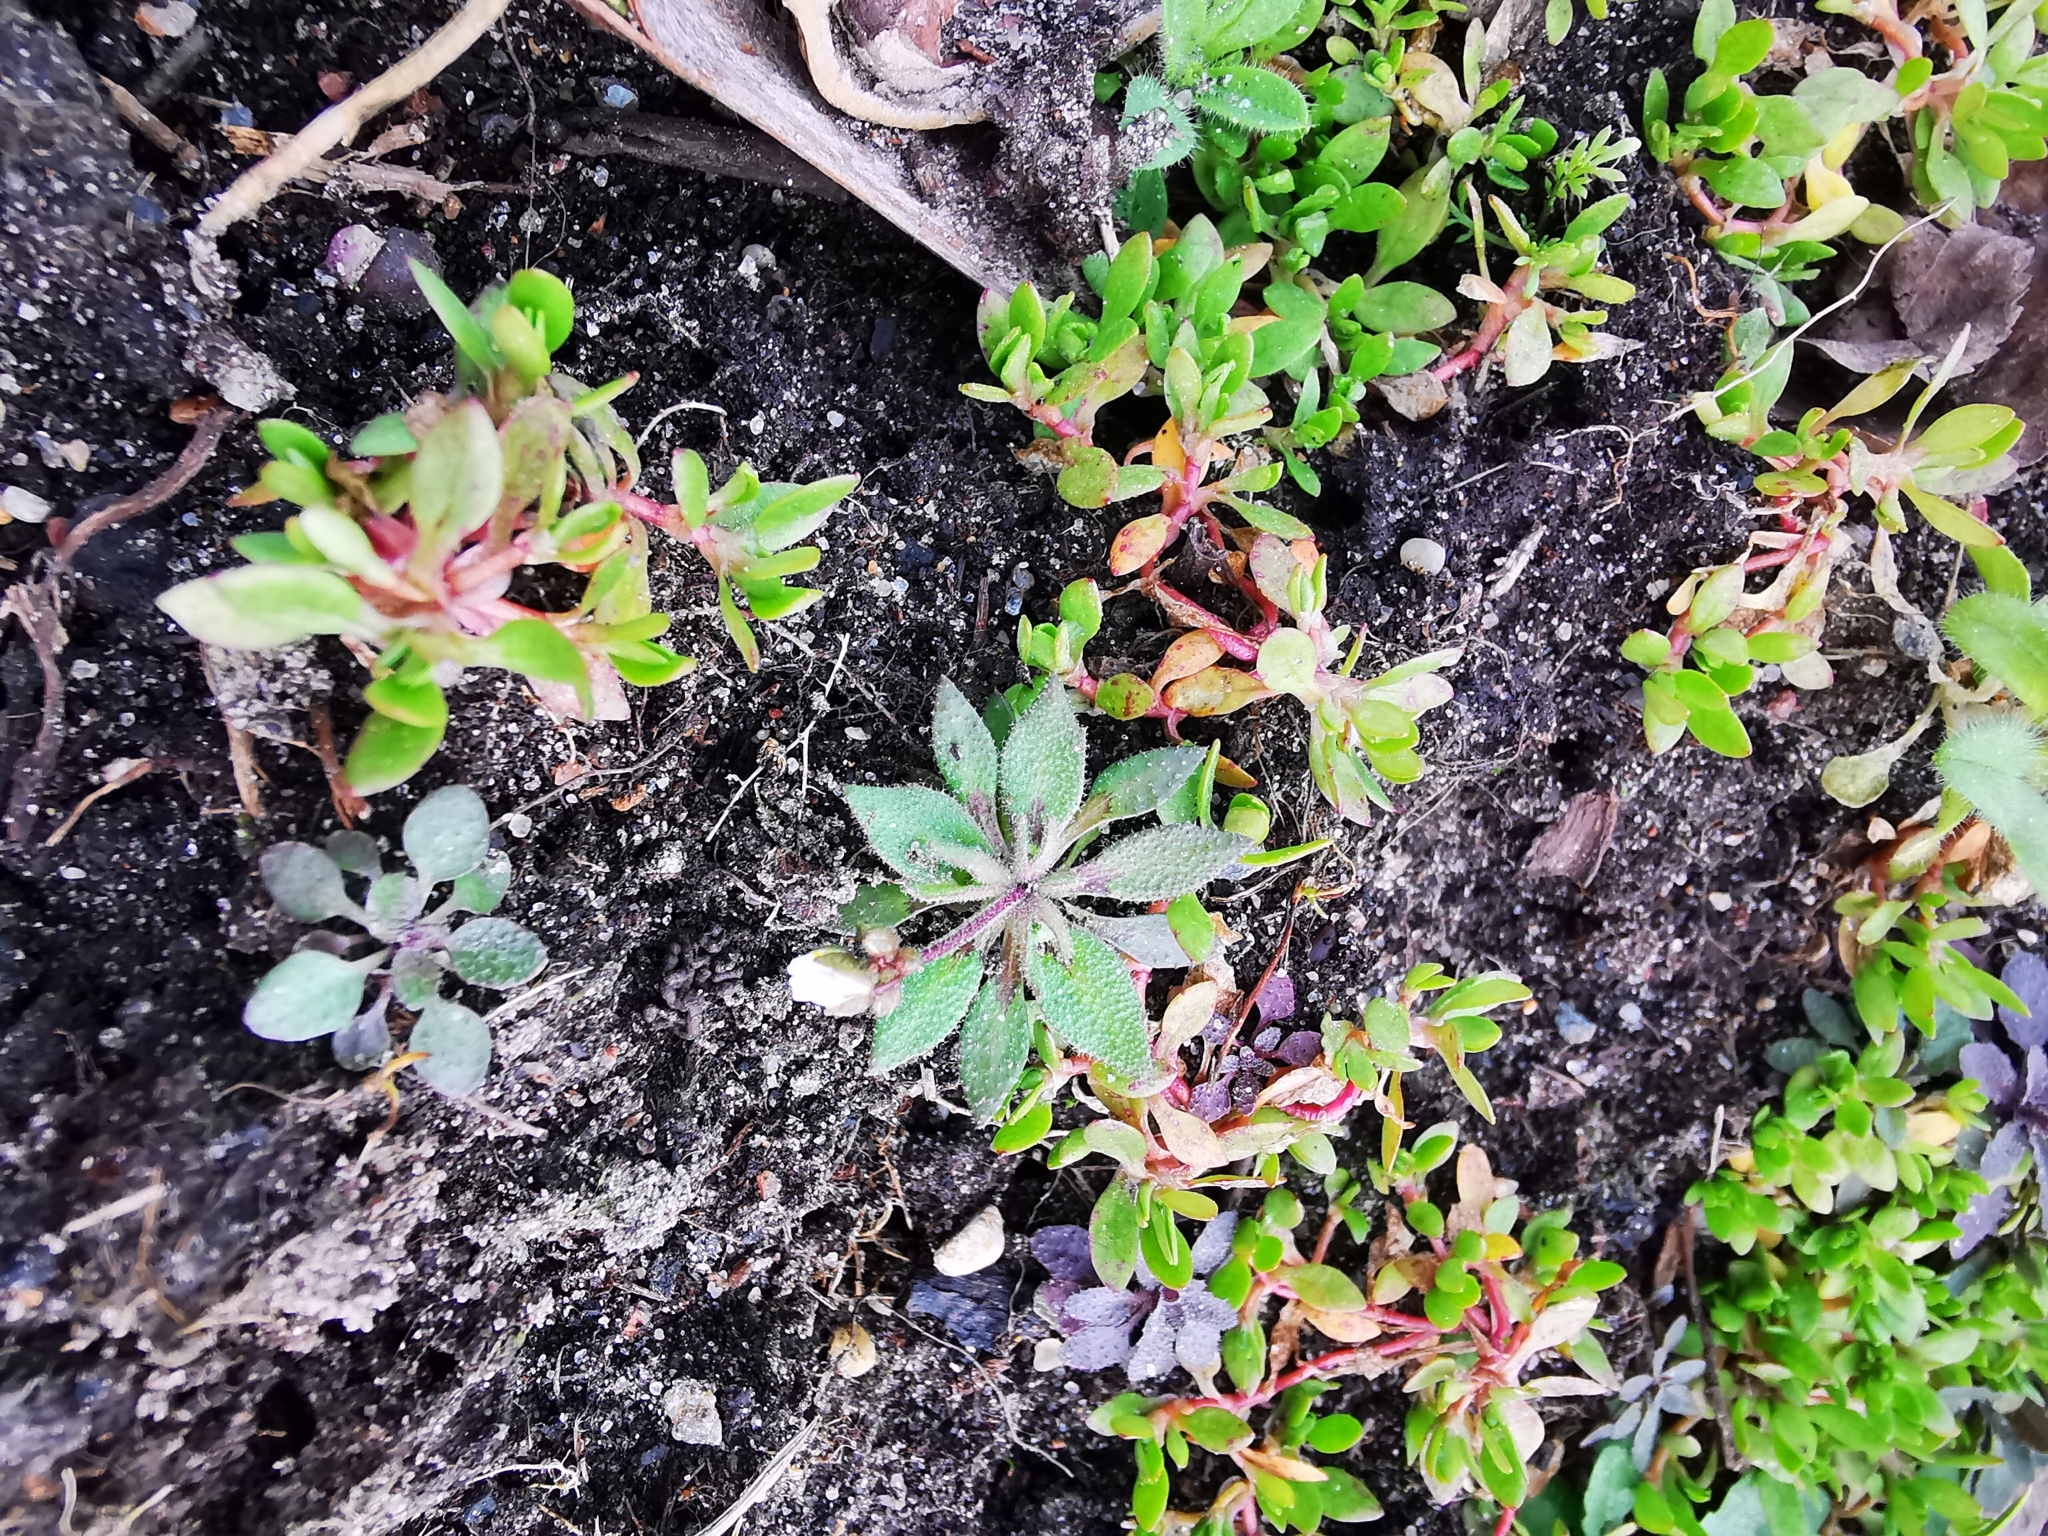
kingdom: Plantae
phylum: Tracheophyta
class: Magnoliopsida
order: Brassicales
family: Brassicaceae
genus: Draba
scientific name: Draba verna
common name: Spring draba
